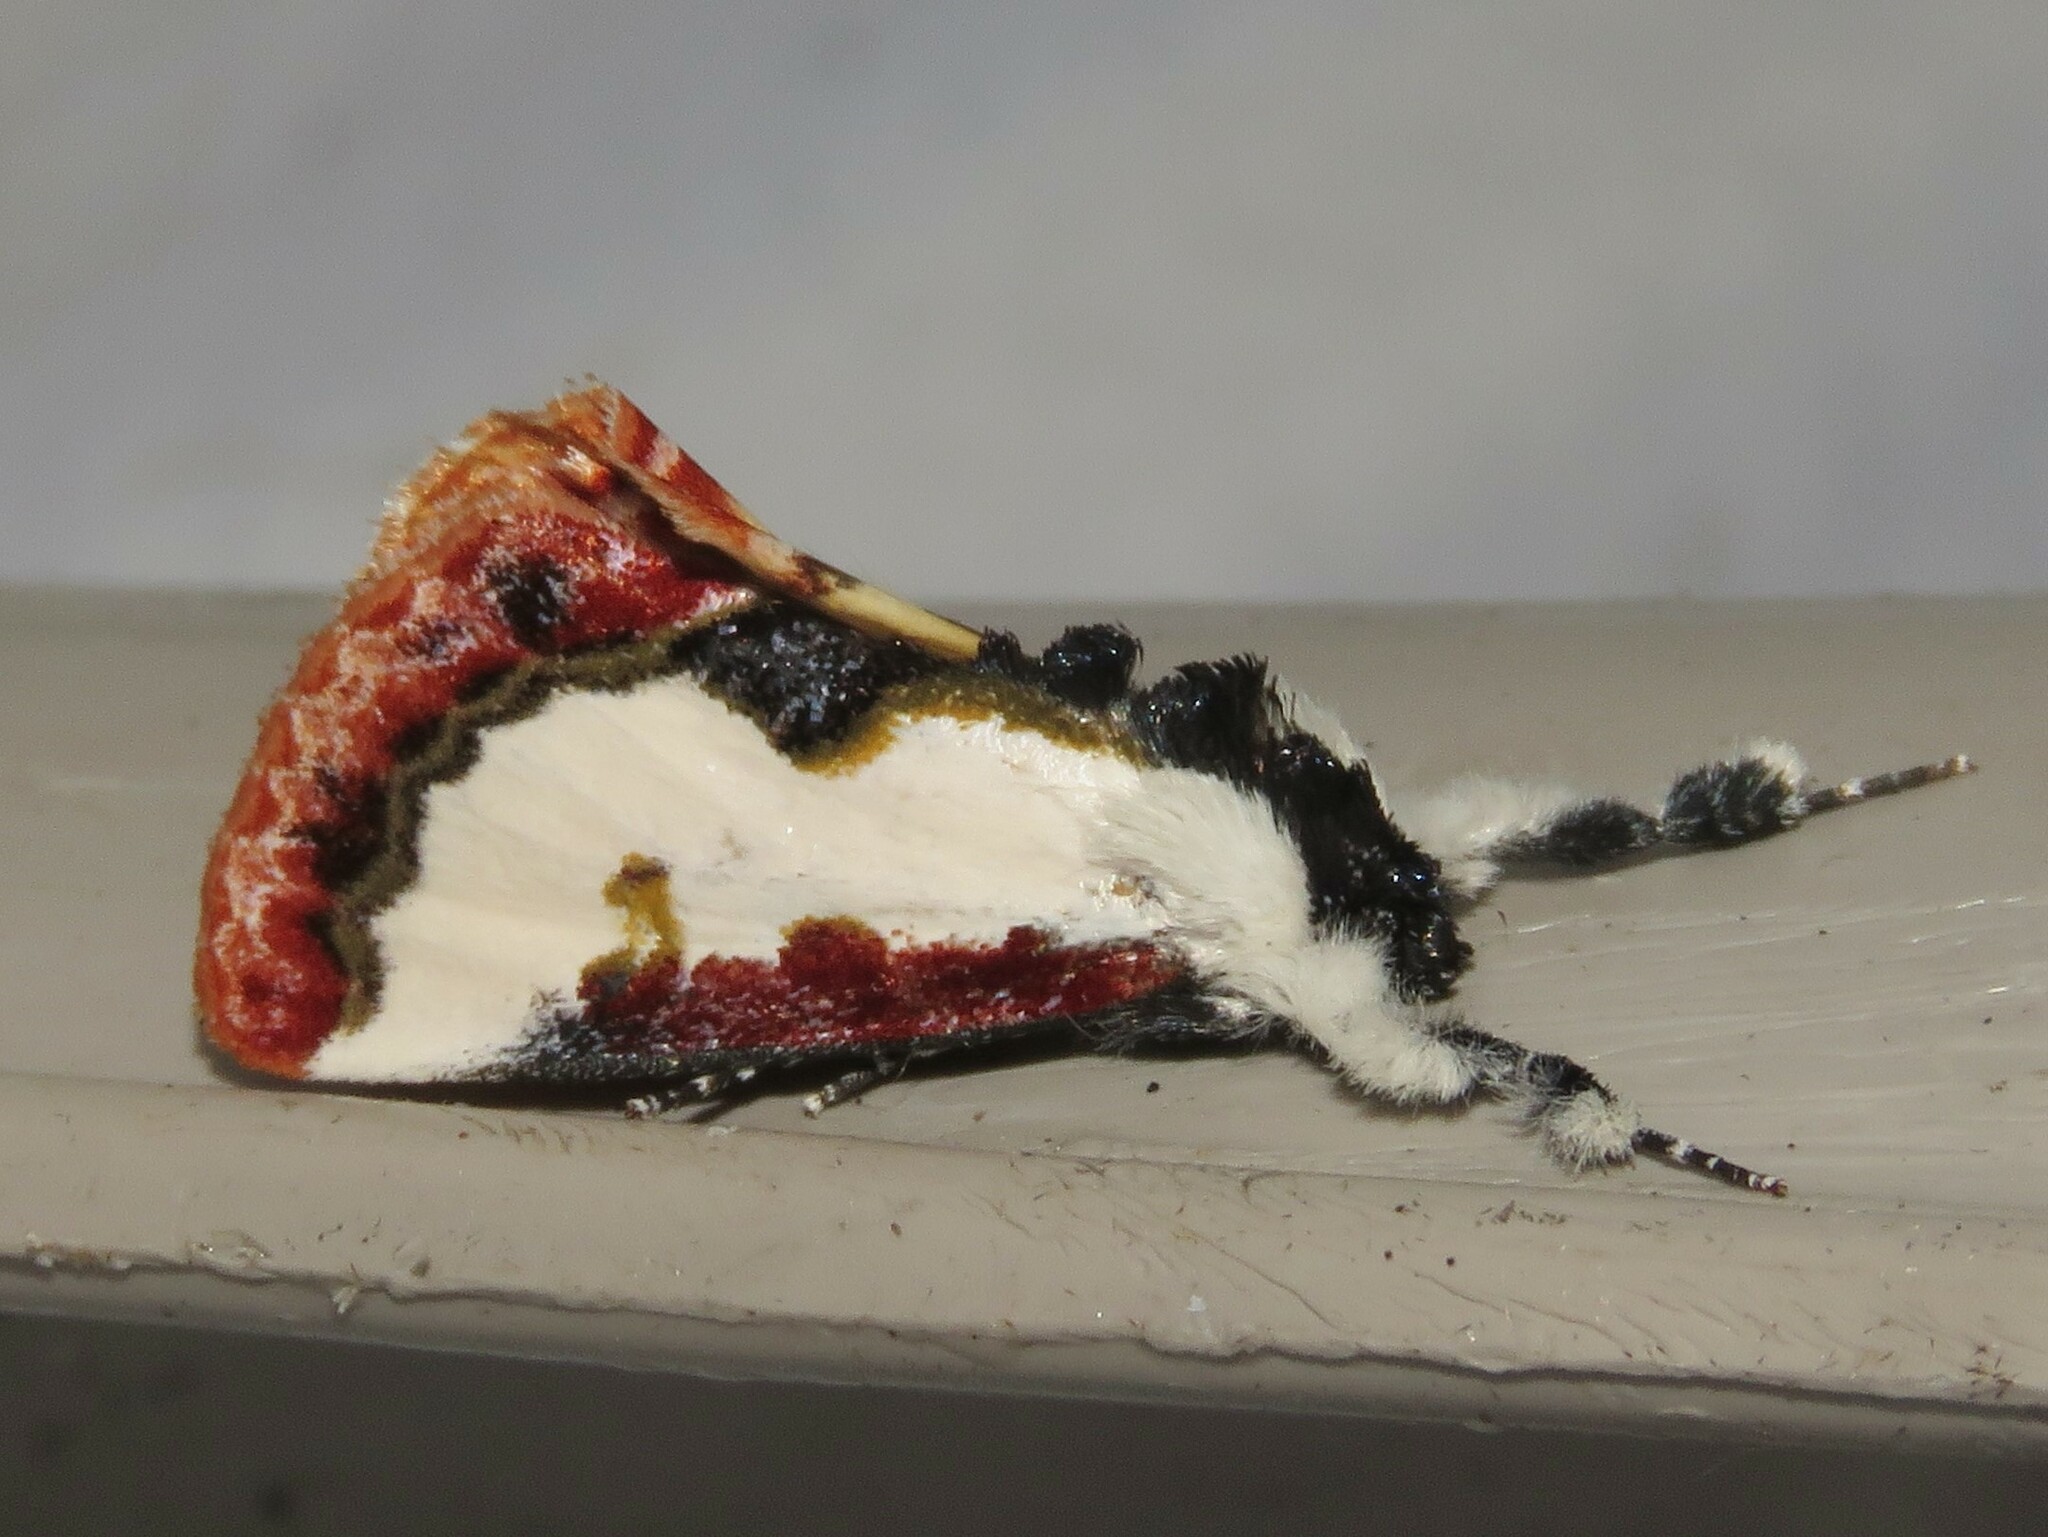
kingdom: Animalia
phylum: Arthropoda
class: Insecta
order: Lepidoptera
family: Noctuidae
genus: Eudryas
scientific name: Eudryas unio
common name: Pearly wood-nymph
